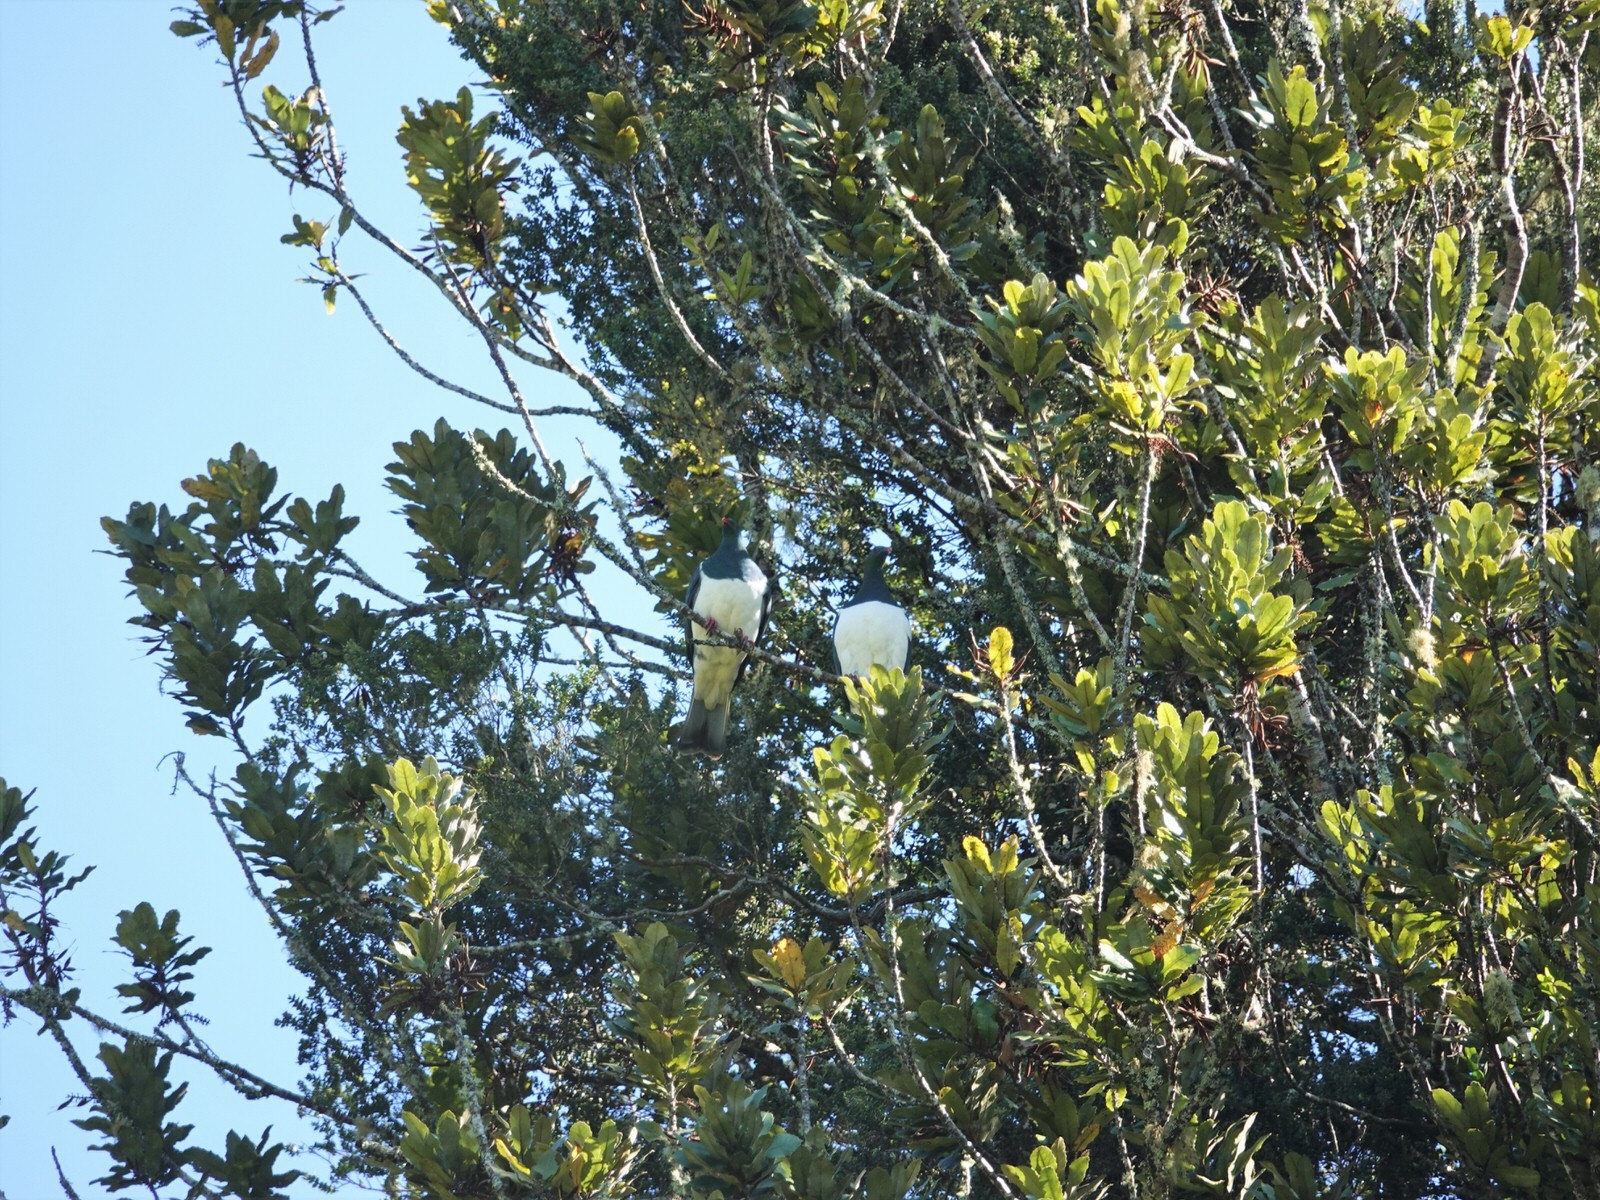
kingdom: Animalia
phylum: Chordata
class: Aves
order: Columbiformes
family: Columbidae
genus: Hemiphaga
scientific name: Hemiphaga novaeseelandiae
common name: New zealand pigeon
